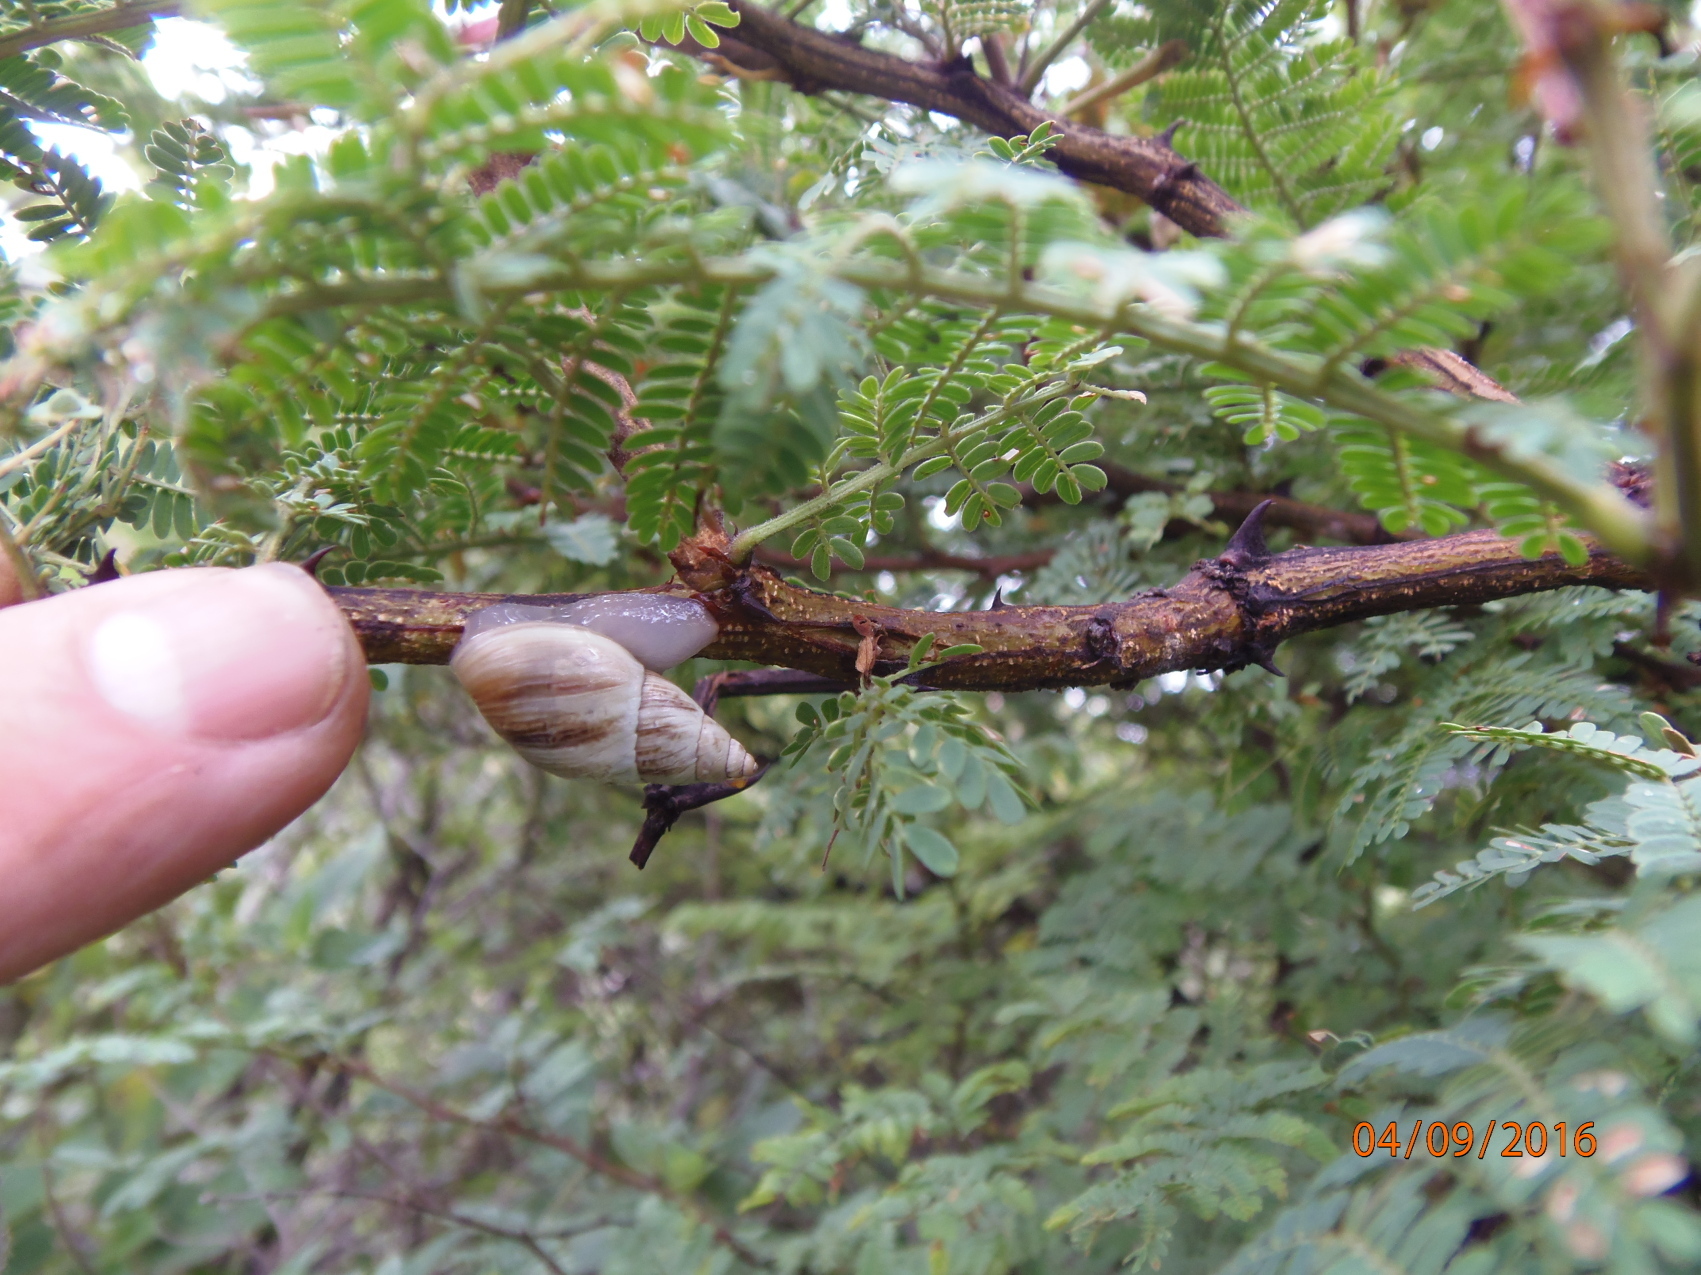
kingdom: Animalia
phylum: Mollusca
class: Gastropoda
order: Stylommatophora
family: Bulimulidae
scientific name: Bulimulidae
